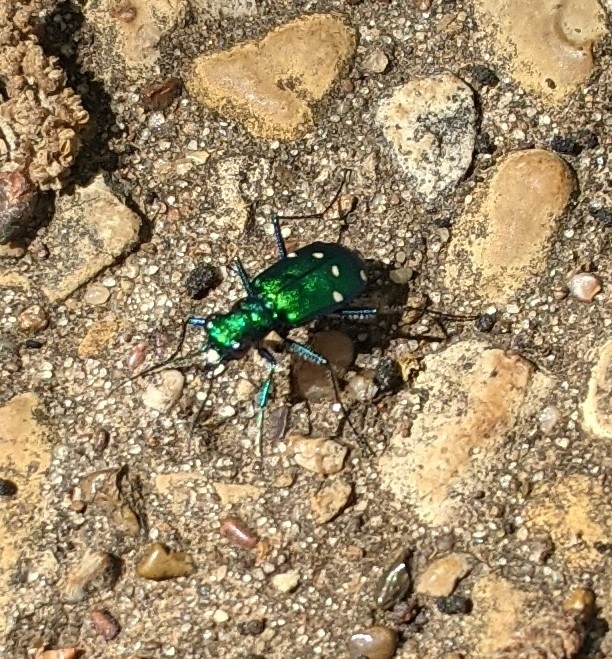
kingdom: Animalia
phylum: Arthropoda
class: Insecta
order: Coleoptera
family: Carabidae
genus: Cicindela
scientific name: Cicindela sexguttata
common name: Six-spotted tiger beetle
